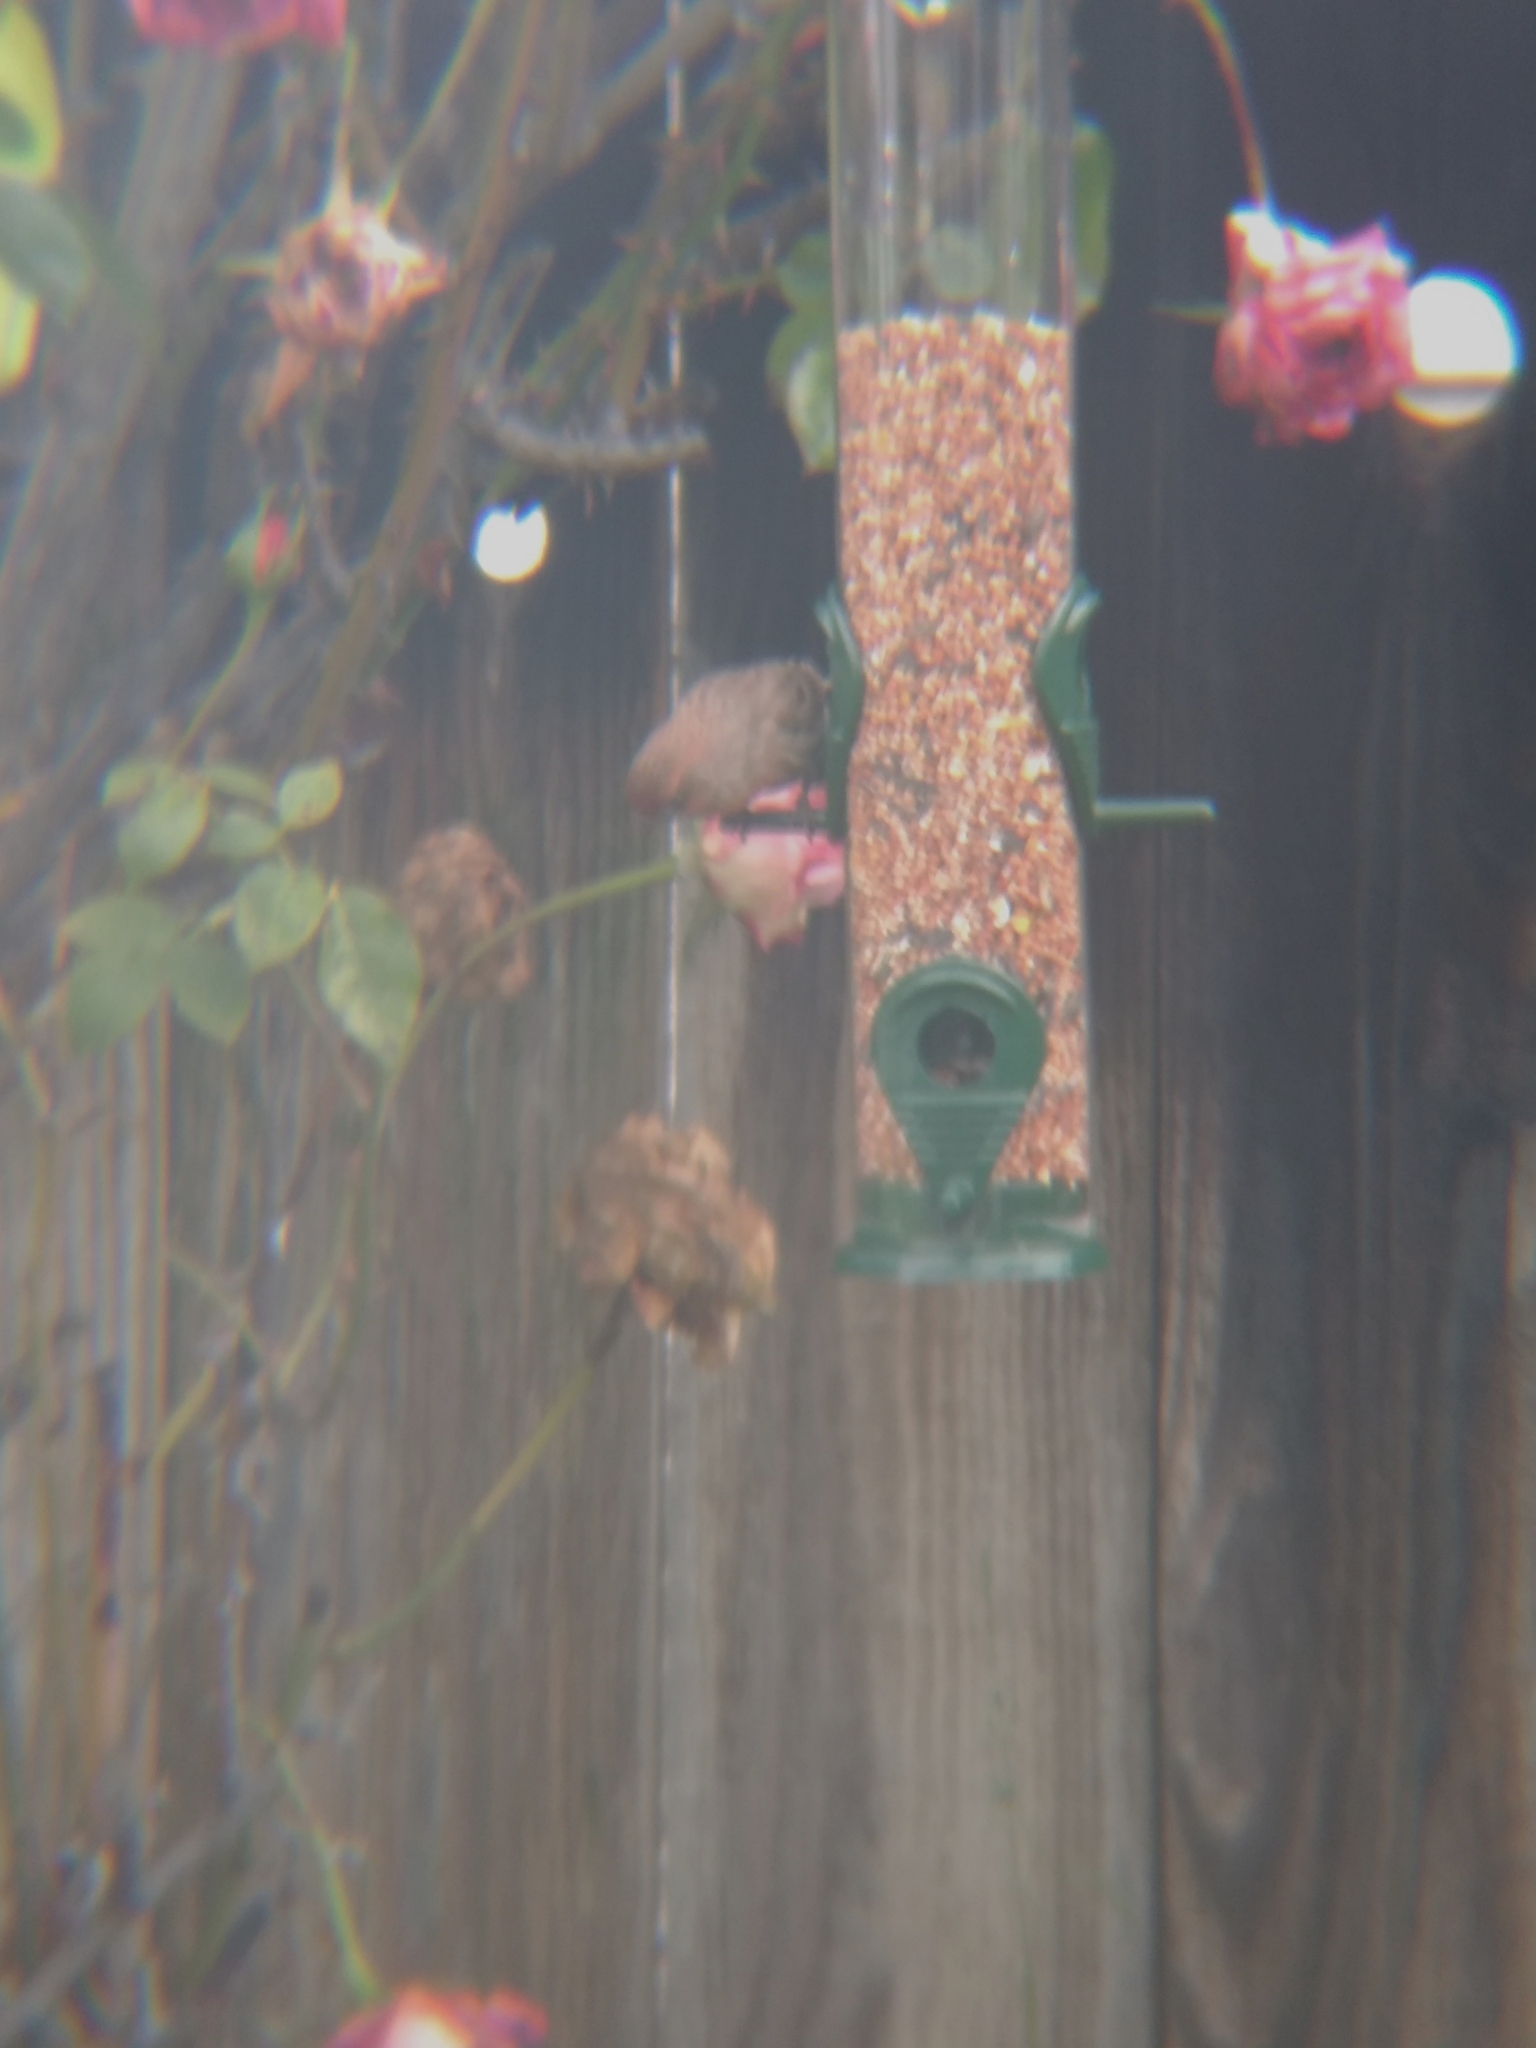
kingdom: Animalia
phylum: Chordata
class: Aves
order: Passeriformes
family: Fringillidae
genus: Haemorhous
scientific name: Haemorhous mexicanus
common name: House finch
